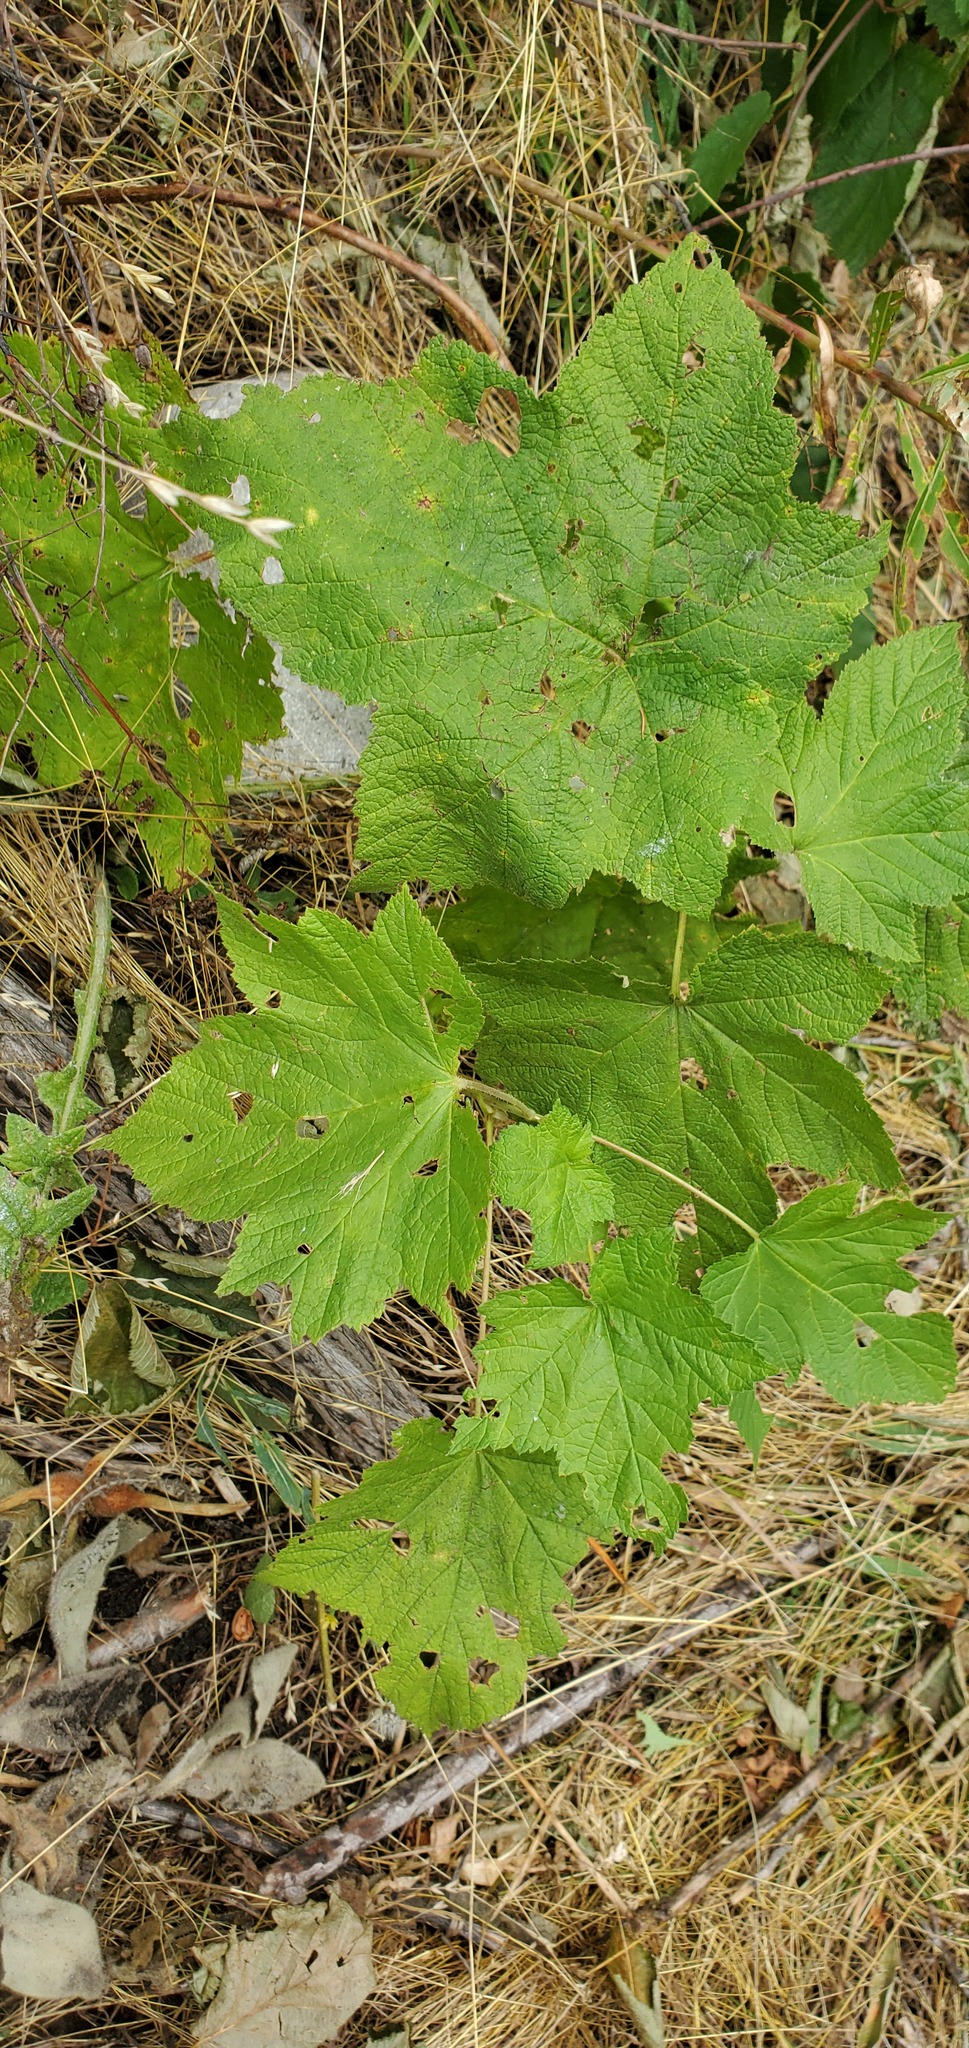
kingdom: Plantae
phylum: Tracheophyta
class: Magnoliopsida
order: Rosales
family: Rosaceae
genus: Rubus
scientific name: Rubus parviflorus
